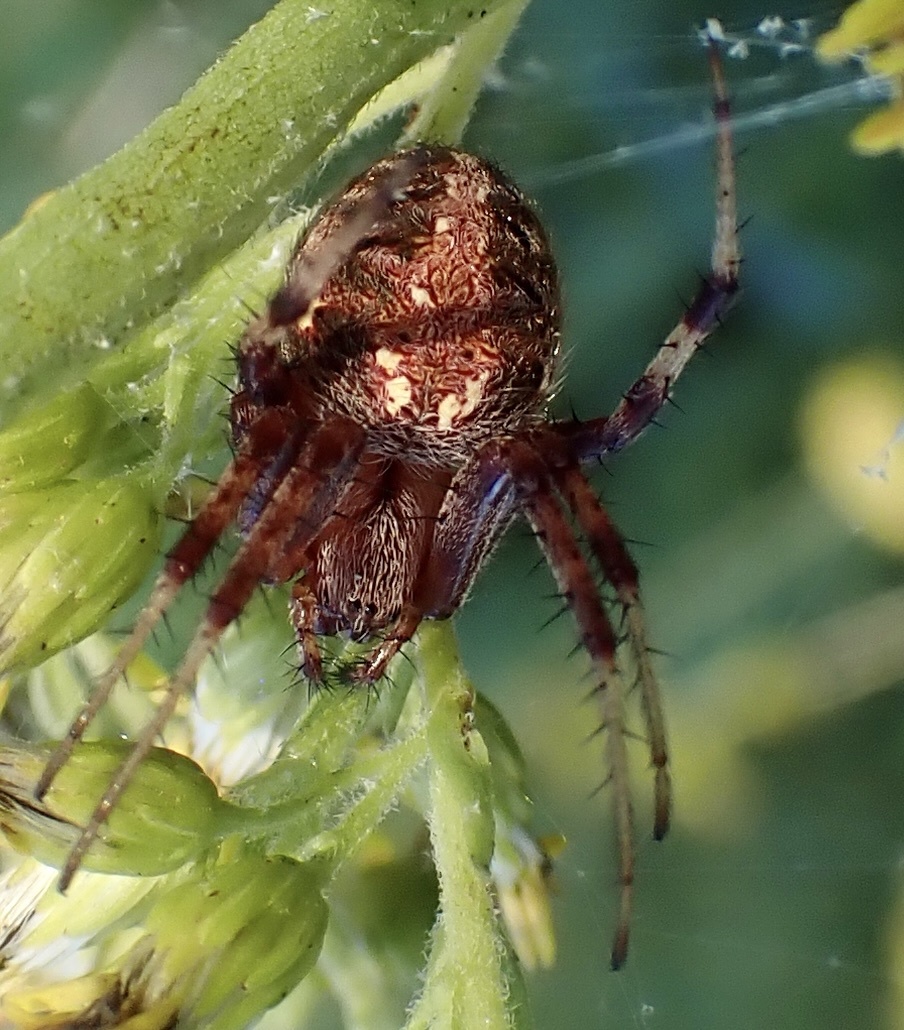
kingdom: Animalia
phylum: Arthropoda
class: Arachnida
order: Araneae
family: Araneidae
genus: Neoscona
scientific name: Neoscona arabesca
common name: Orb weavers
